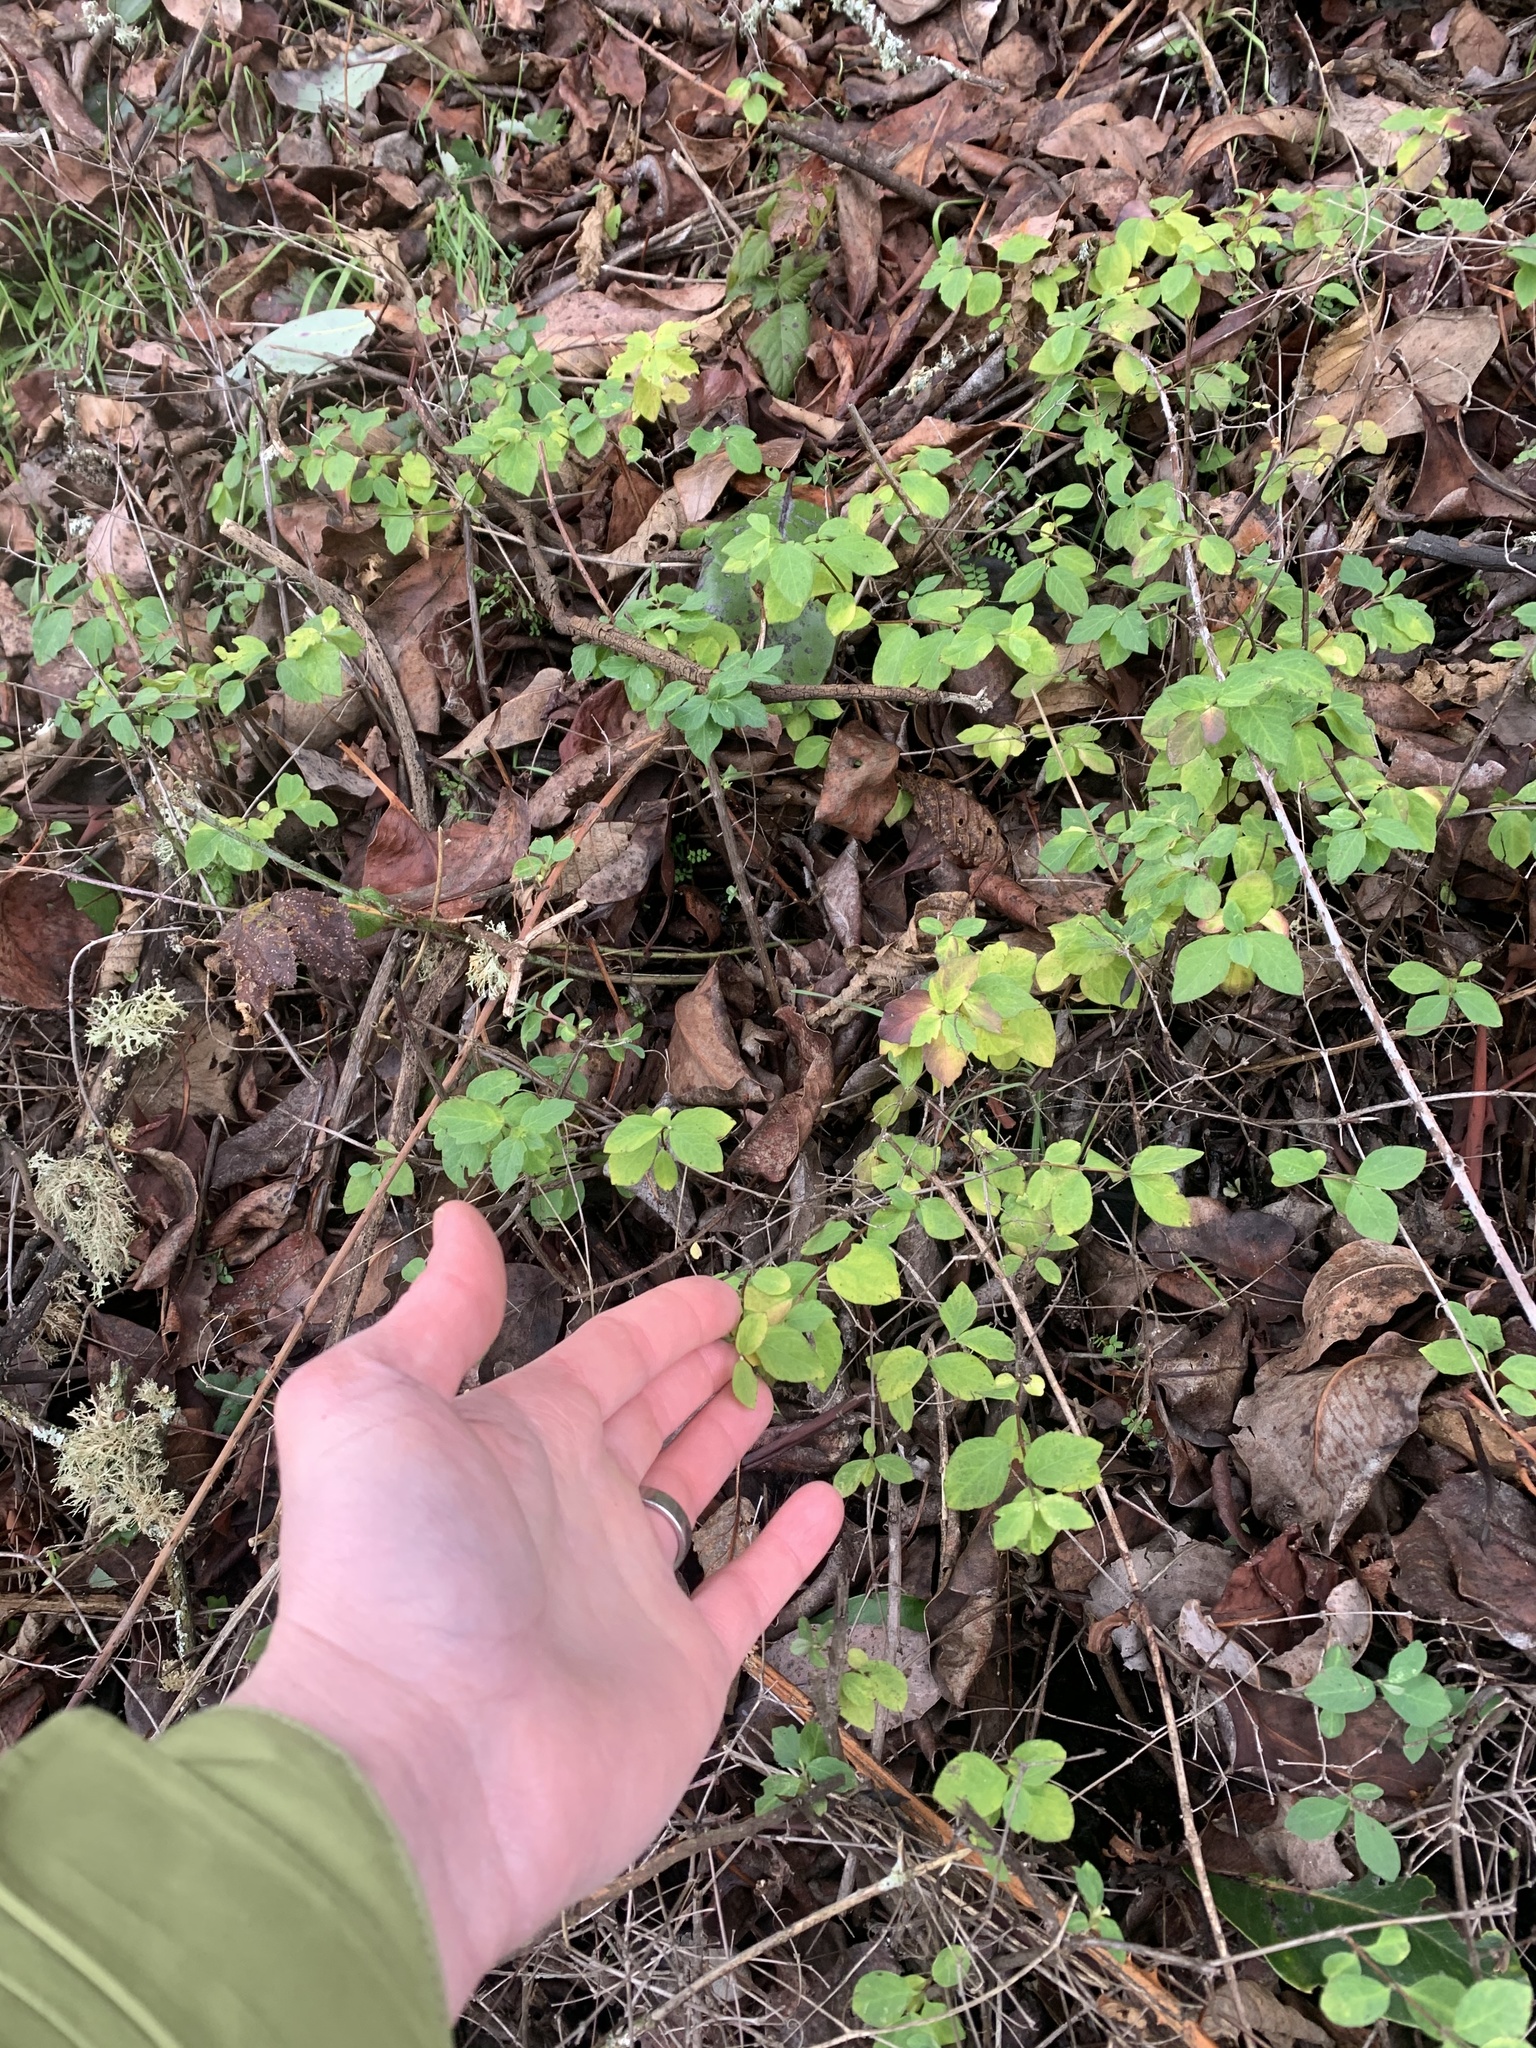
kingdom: Plantae
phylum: Tracheophyta
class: Magnoliopsida
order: Dipsacales
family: Caprifoliaceae
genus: Symphoricarpos
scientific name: Symphoricarpos mollis
